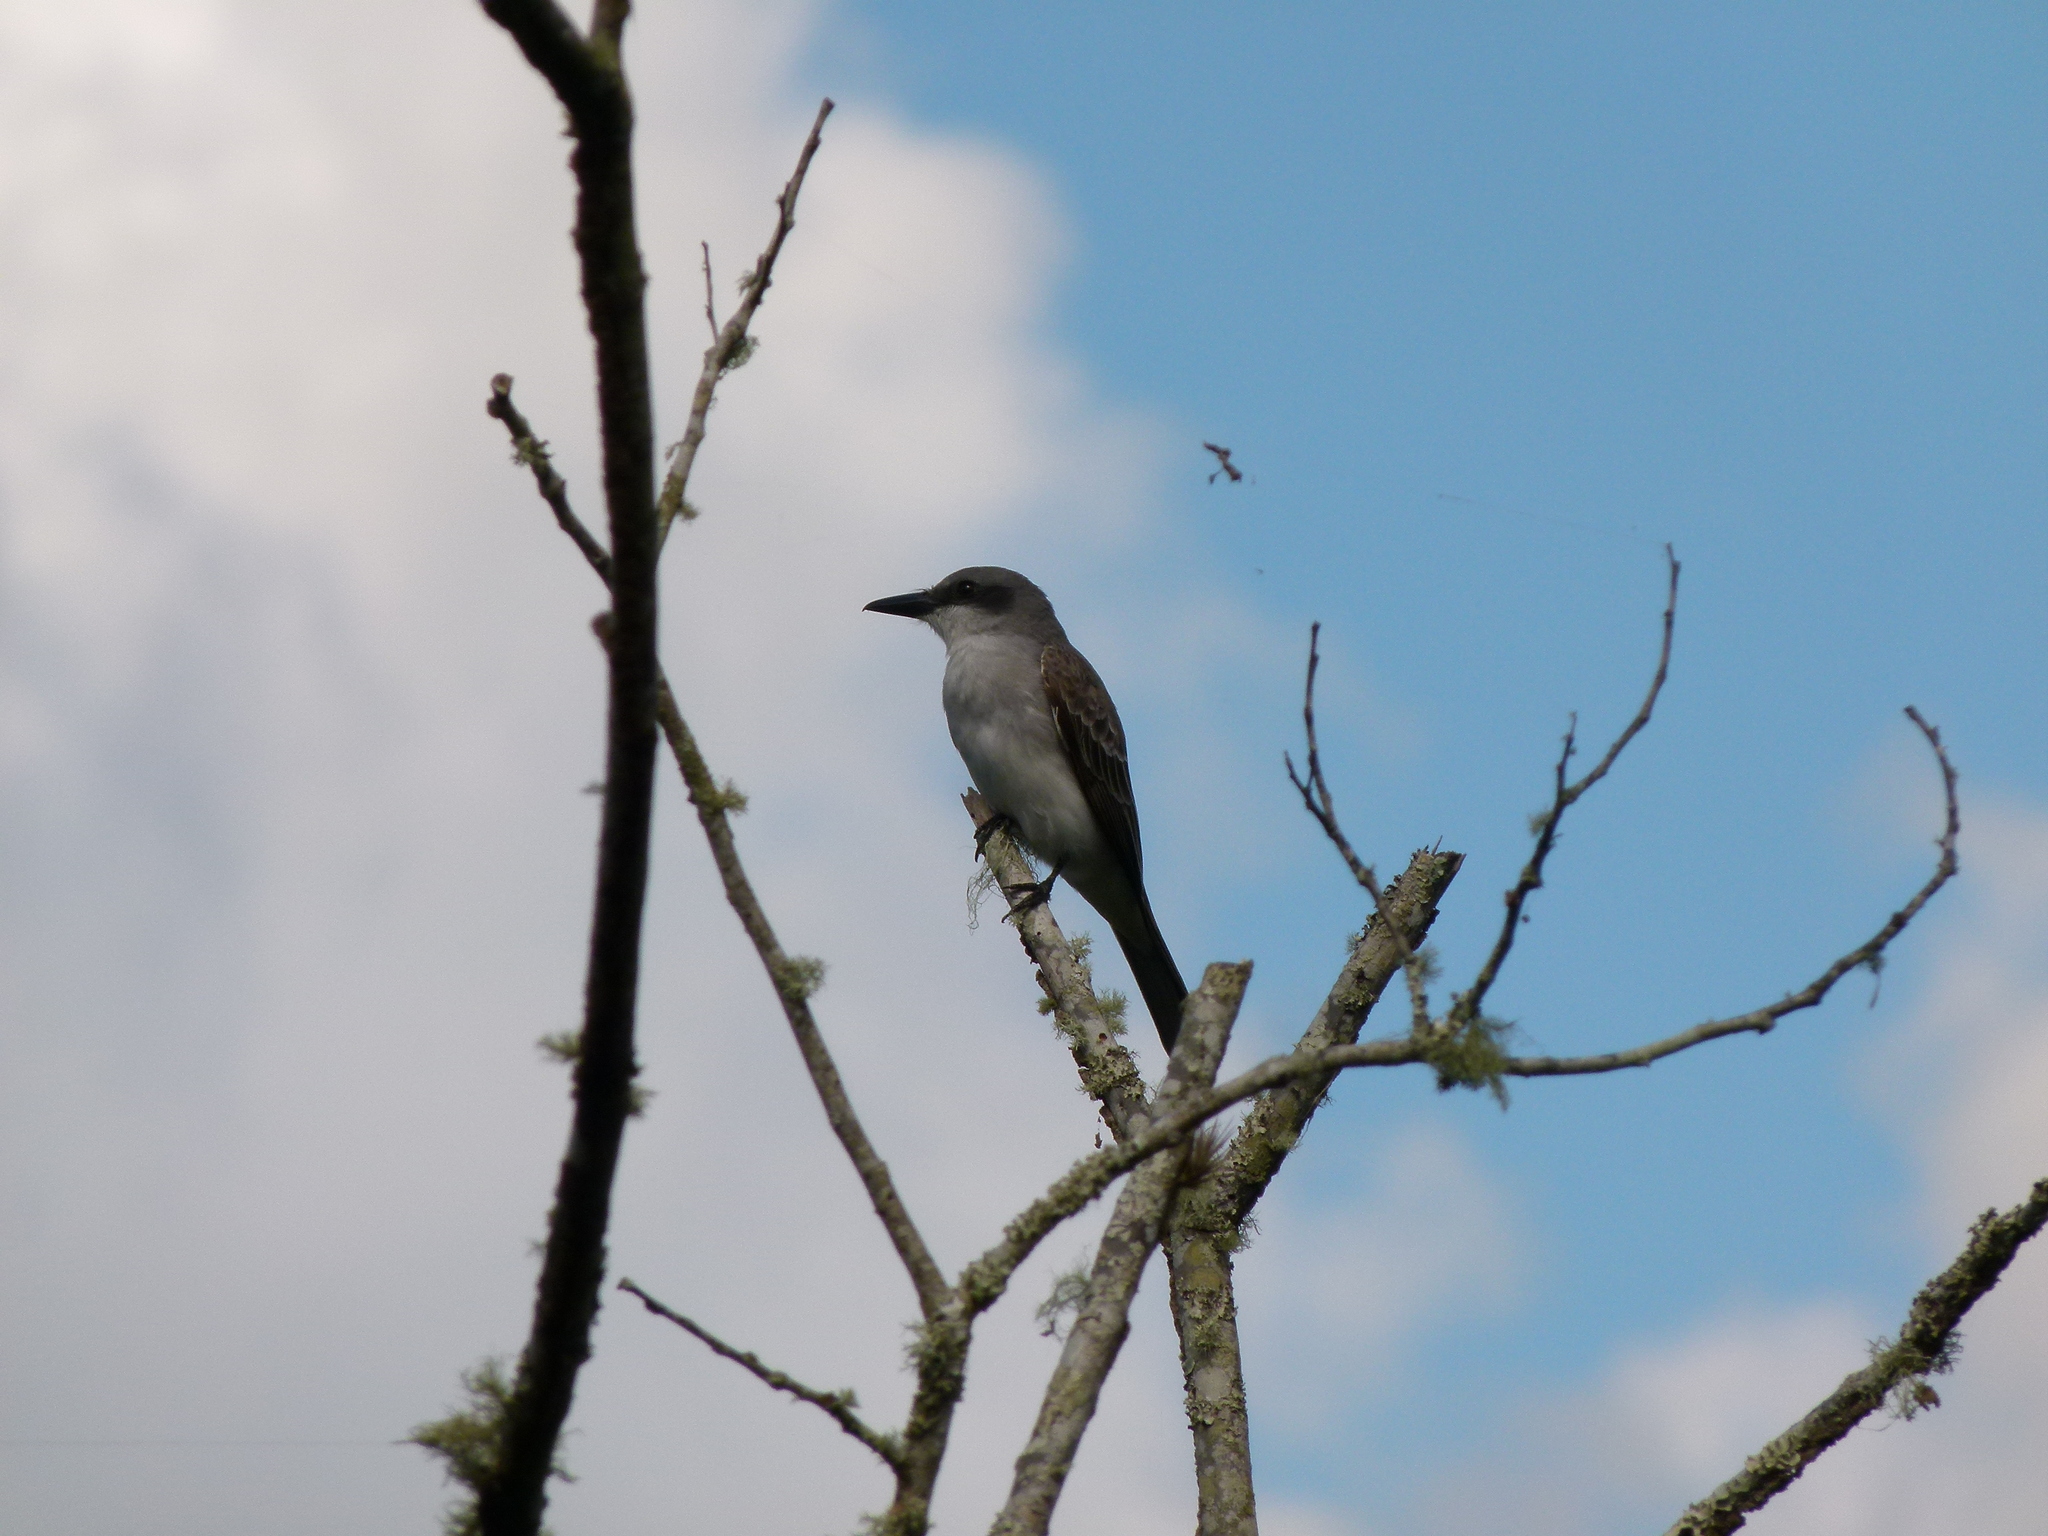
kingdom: Animalia
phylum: Chordata
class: Aves
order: Passeriformes
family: Tyrannidae
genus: Tyrannus
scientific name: Tyrannus dominicensis
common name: Gray kingbird
